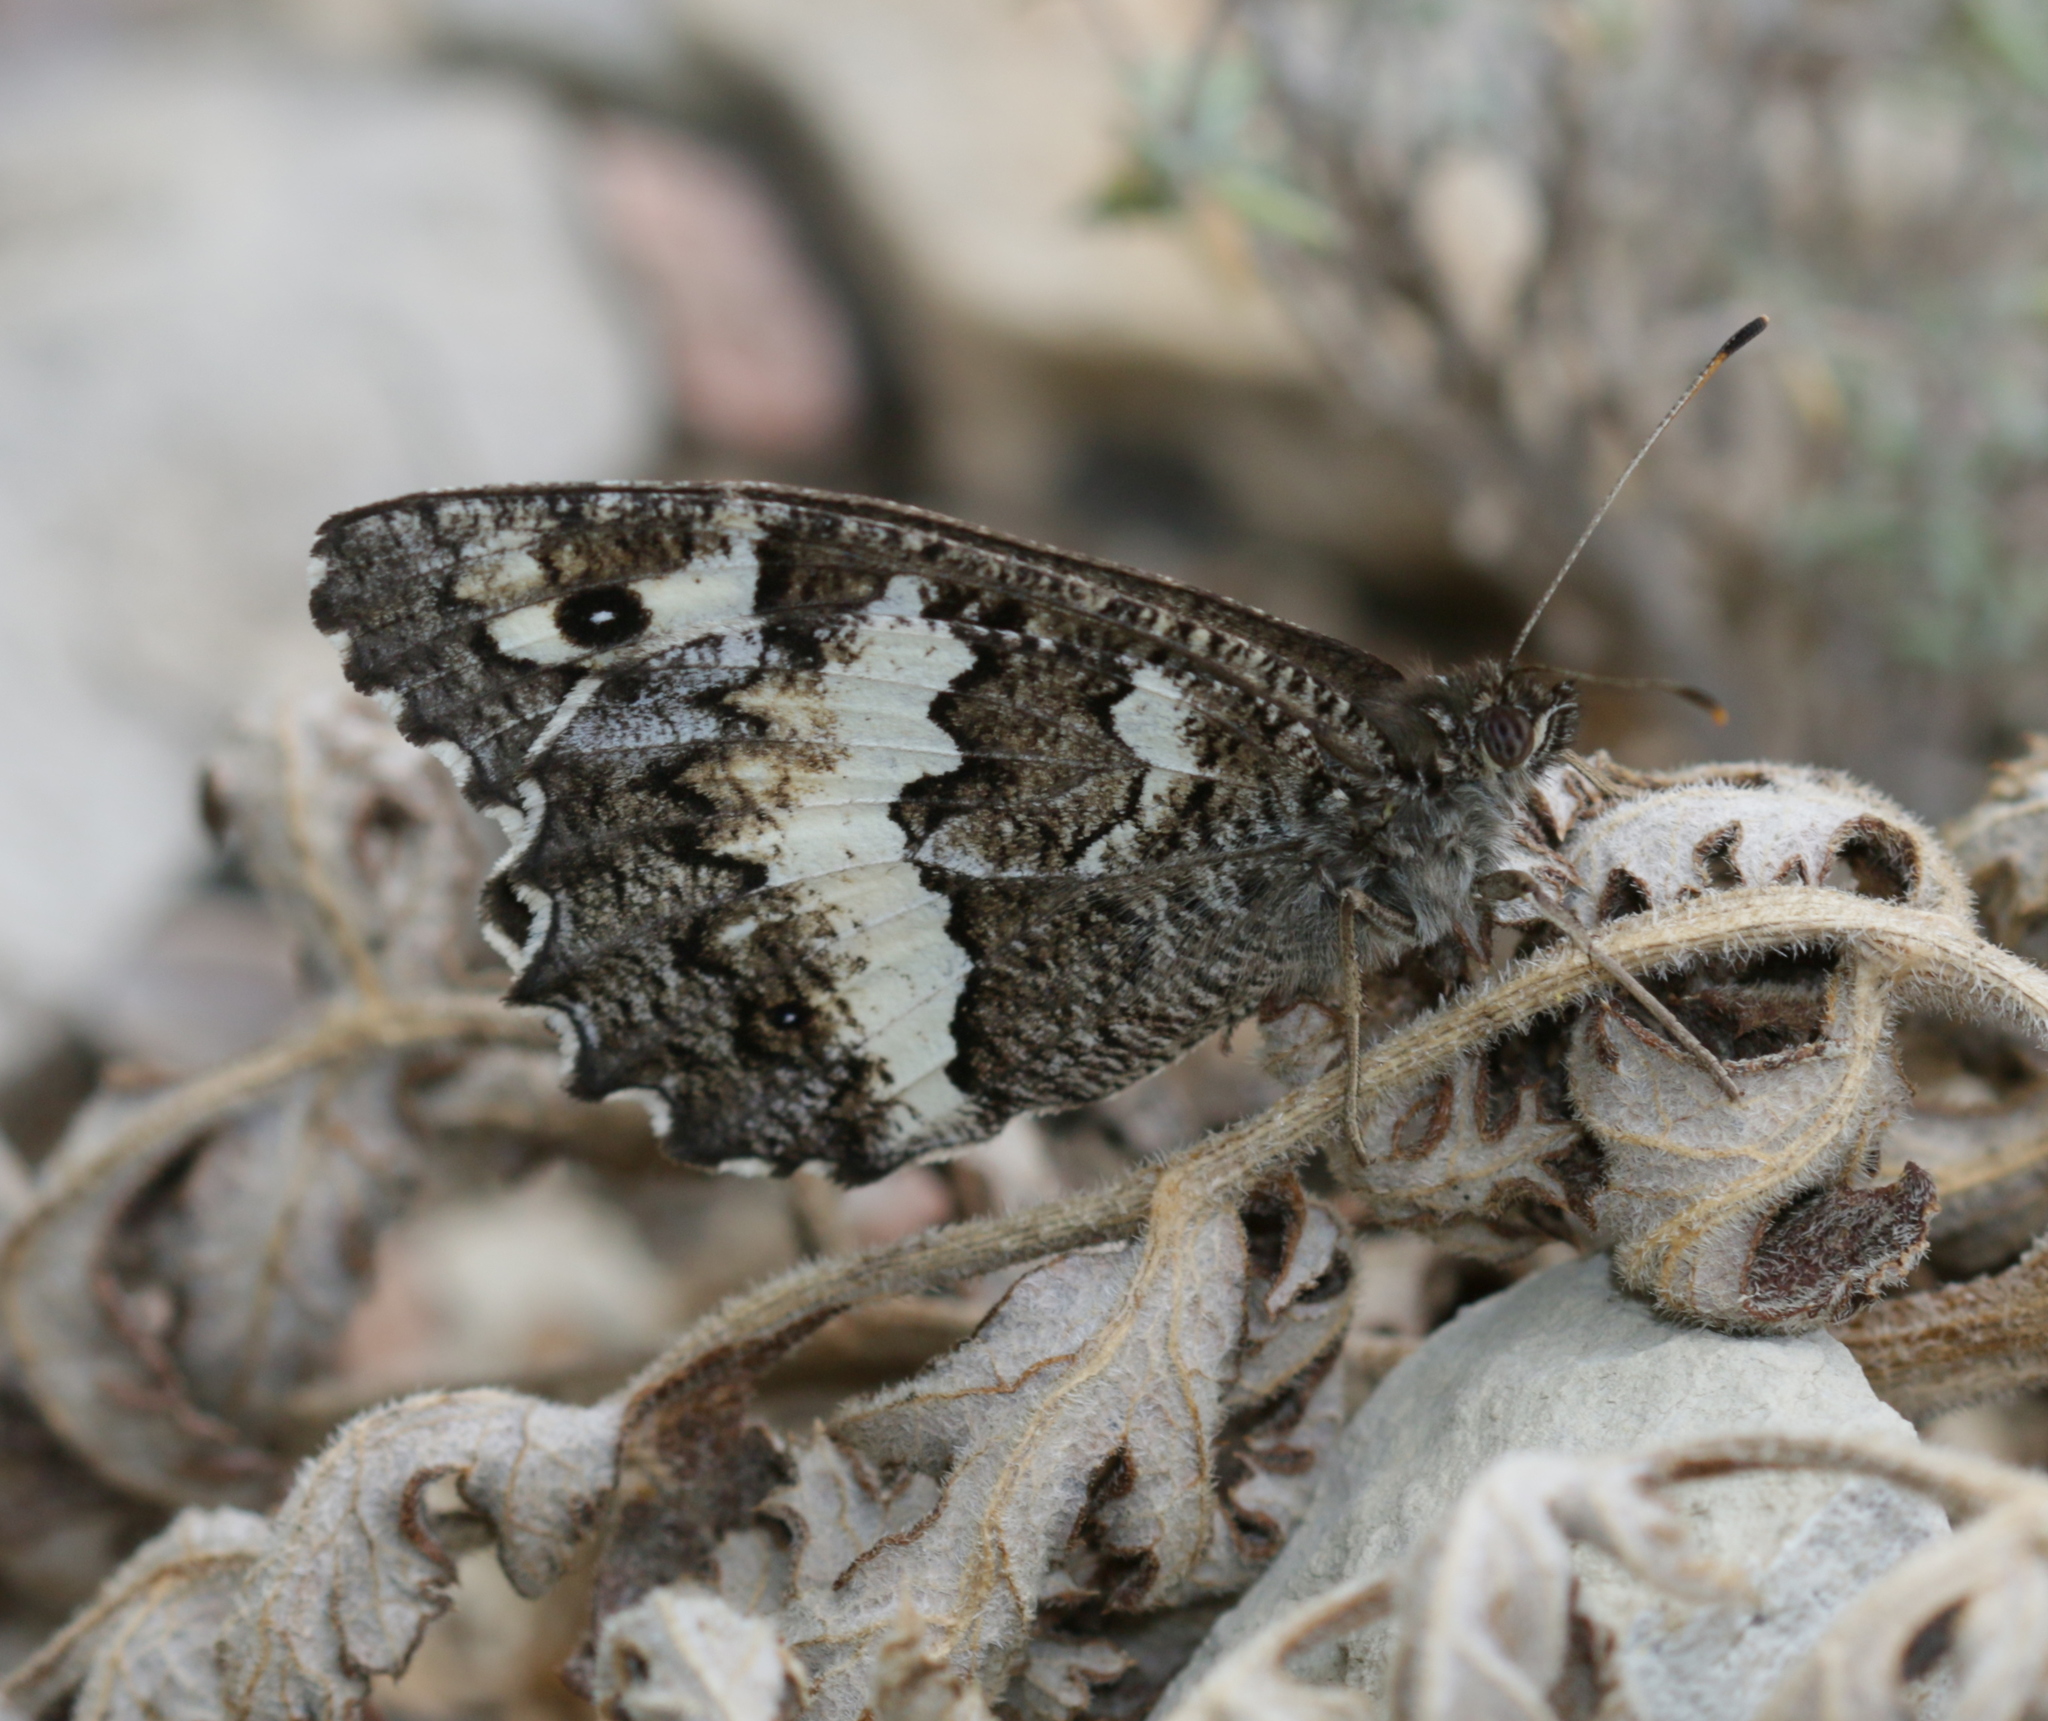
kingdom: Animalia
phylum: Arthropoda
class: Insecta
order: Lepidoptera
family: Lycaenidae
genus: Loweia
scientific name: Loweia tityrus
